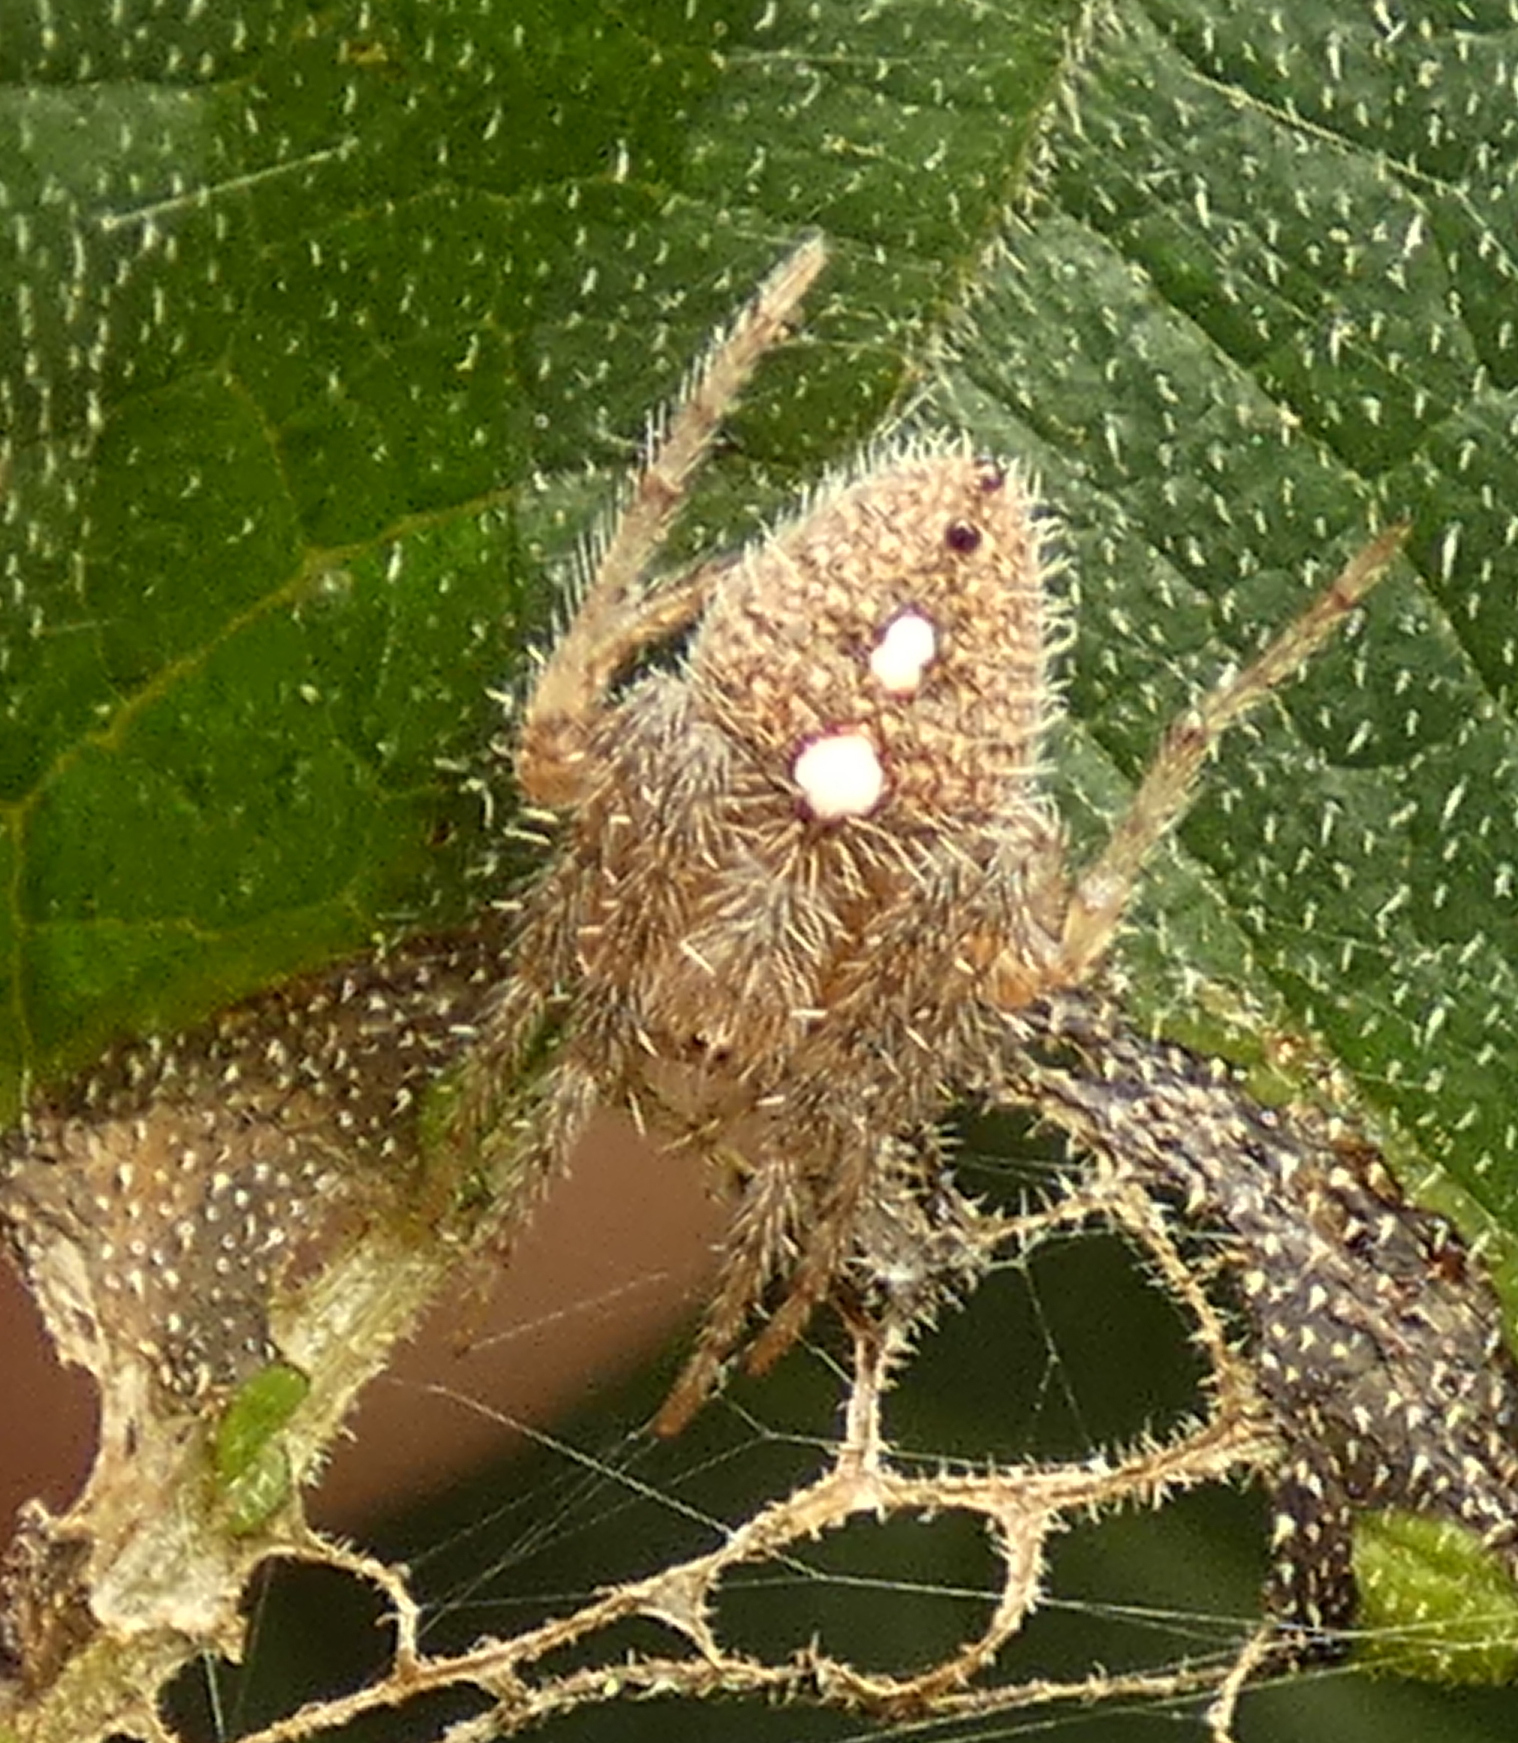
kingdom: Animalia
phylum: Arthropoda
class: Arachnida
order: Araneae
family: Araneidae
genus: Eriophora
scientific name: Eriophora edax
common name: Orb weavers
